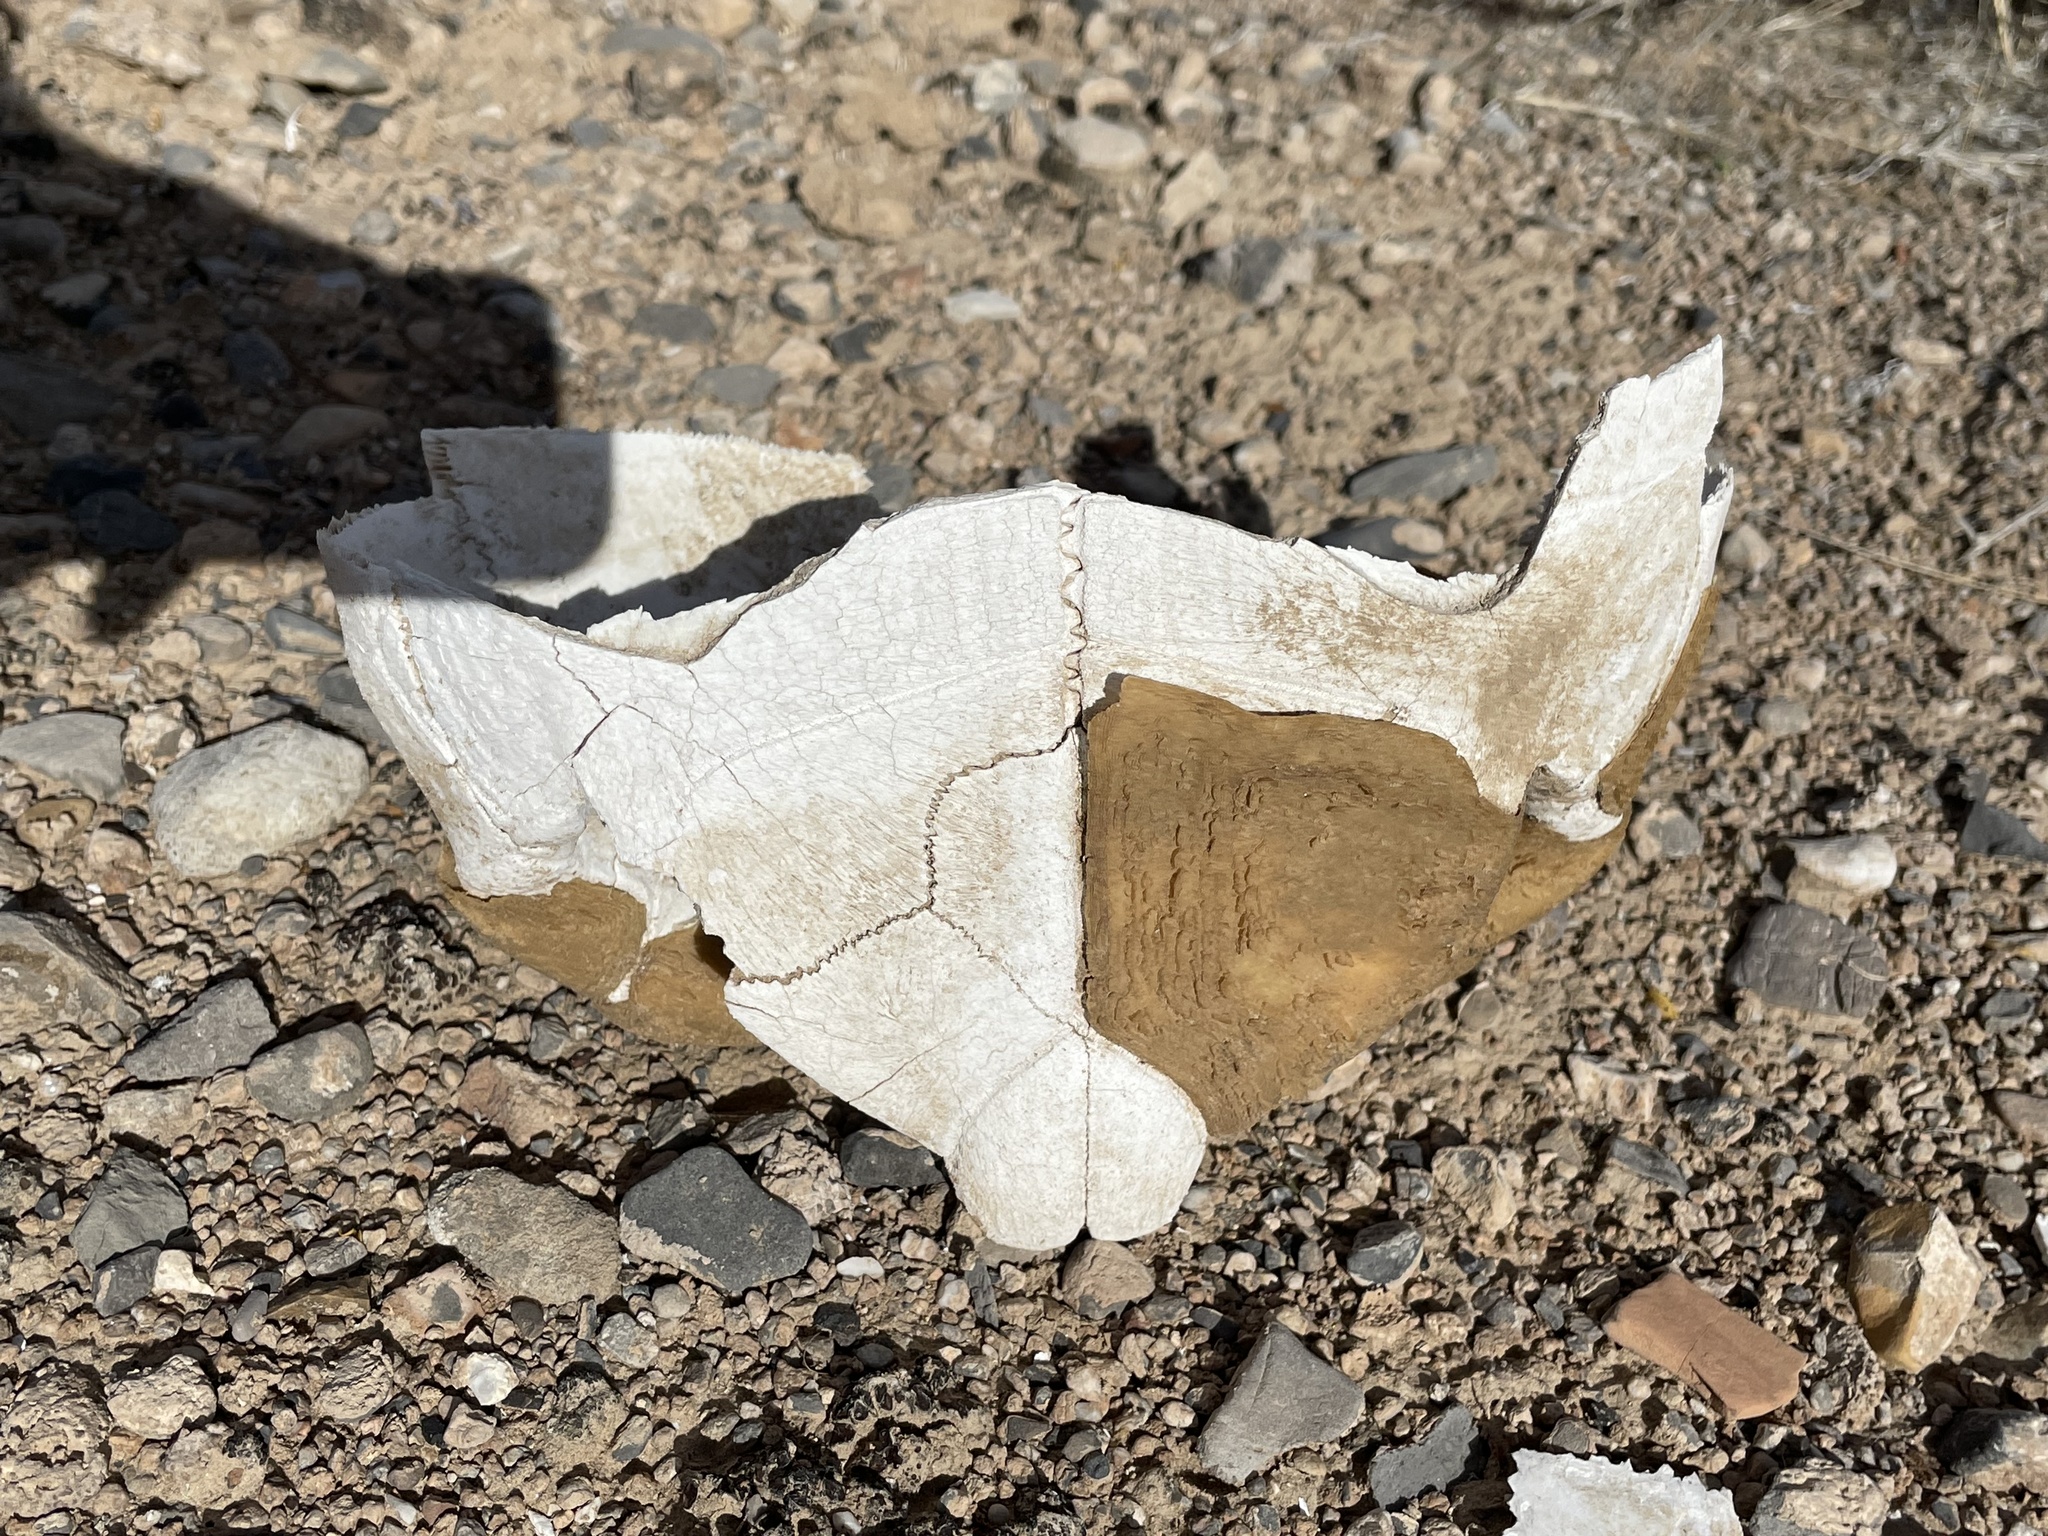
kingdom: Animalia
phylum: Chordata
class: Testudines
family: Testudinidae
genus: Gopherus
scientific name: Gopherus agassizii
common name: Mojave desert tortoise
